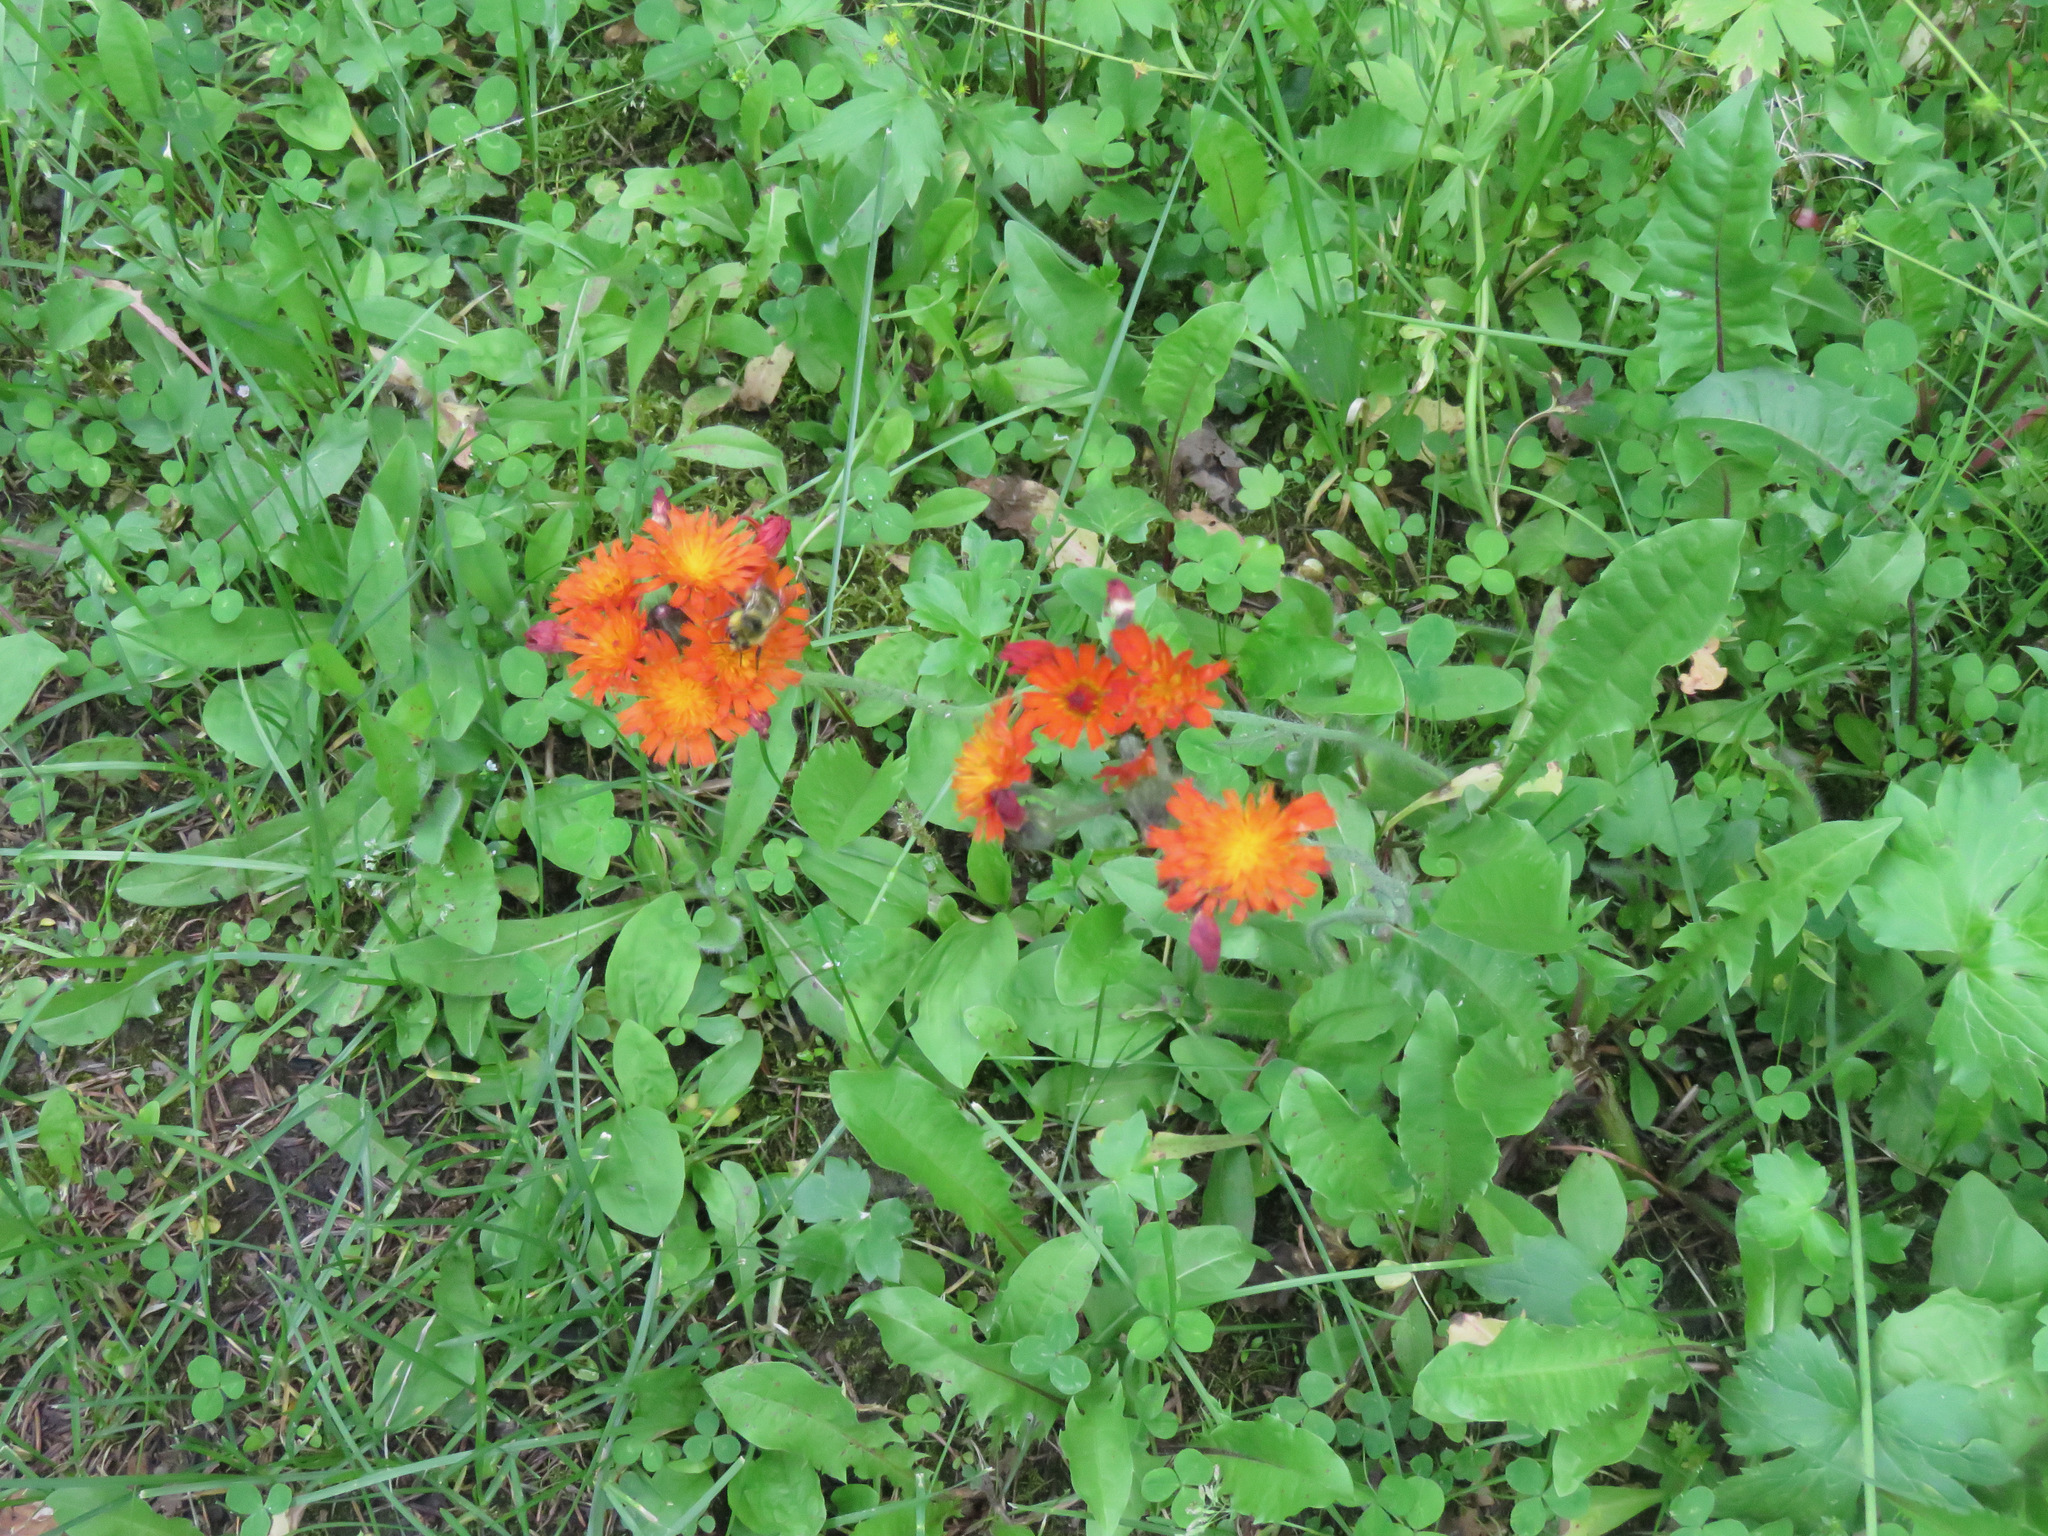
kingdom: Plantae
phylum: Tracheophyta
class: Magnoliopsida
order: Asterales
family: Asteraceae
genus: Pilosella
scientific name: Pilosella aurantiaca
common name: Fox-and-cubs
